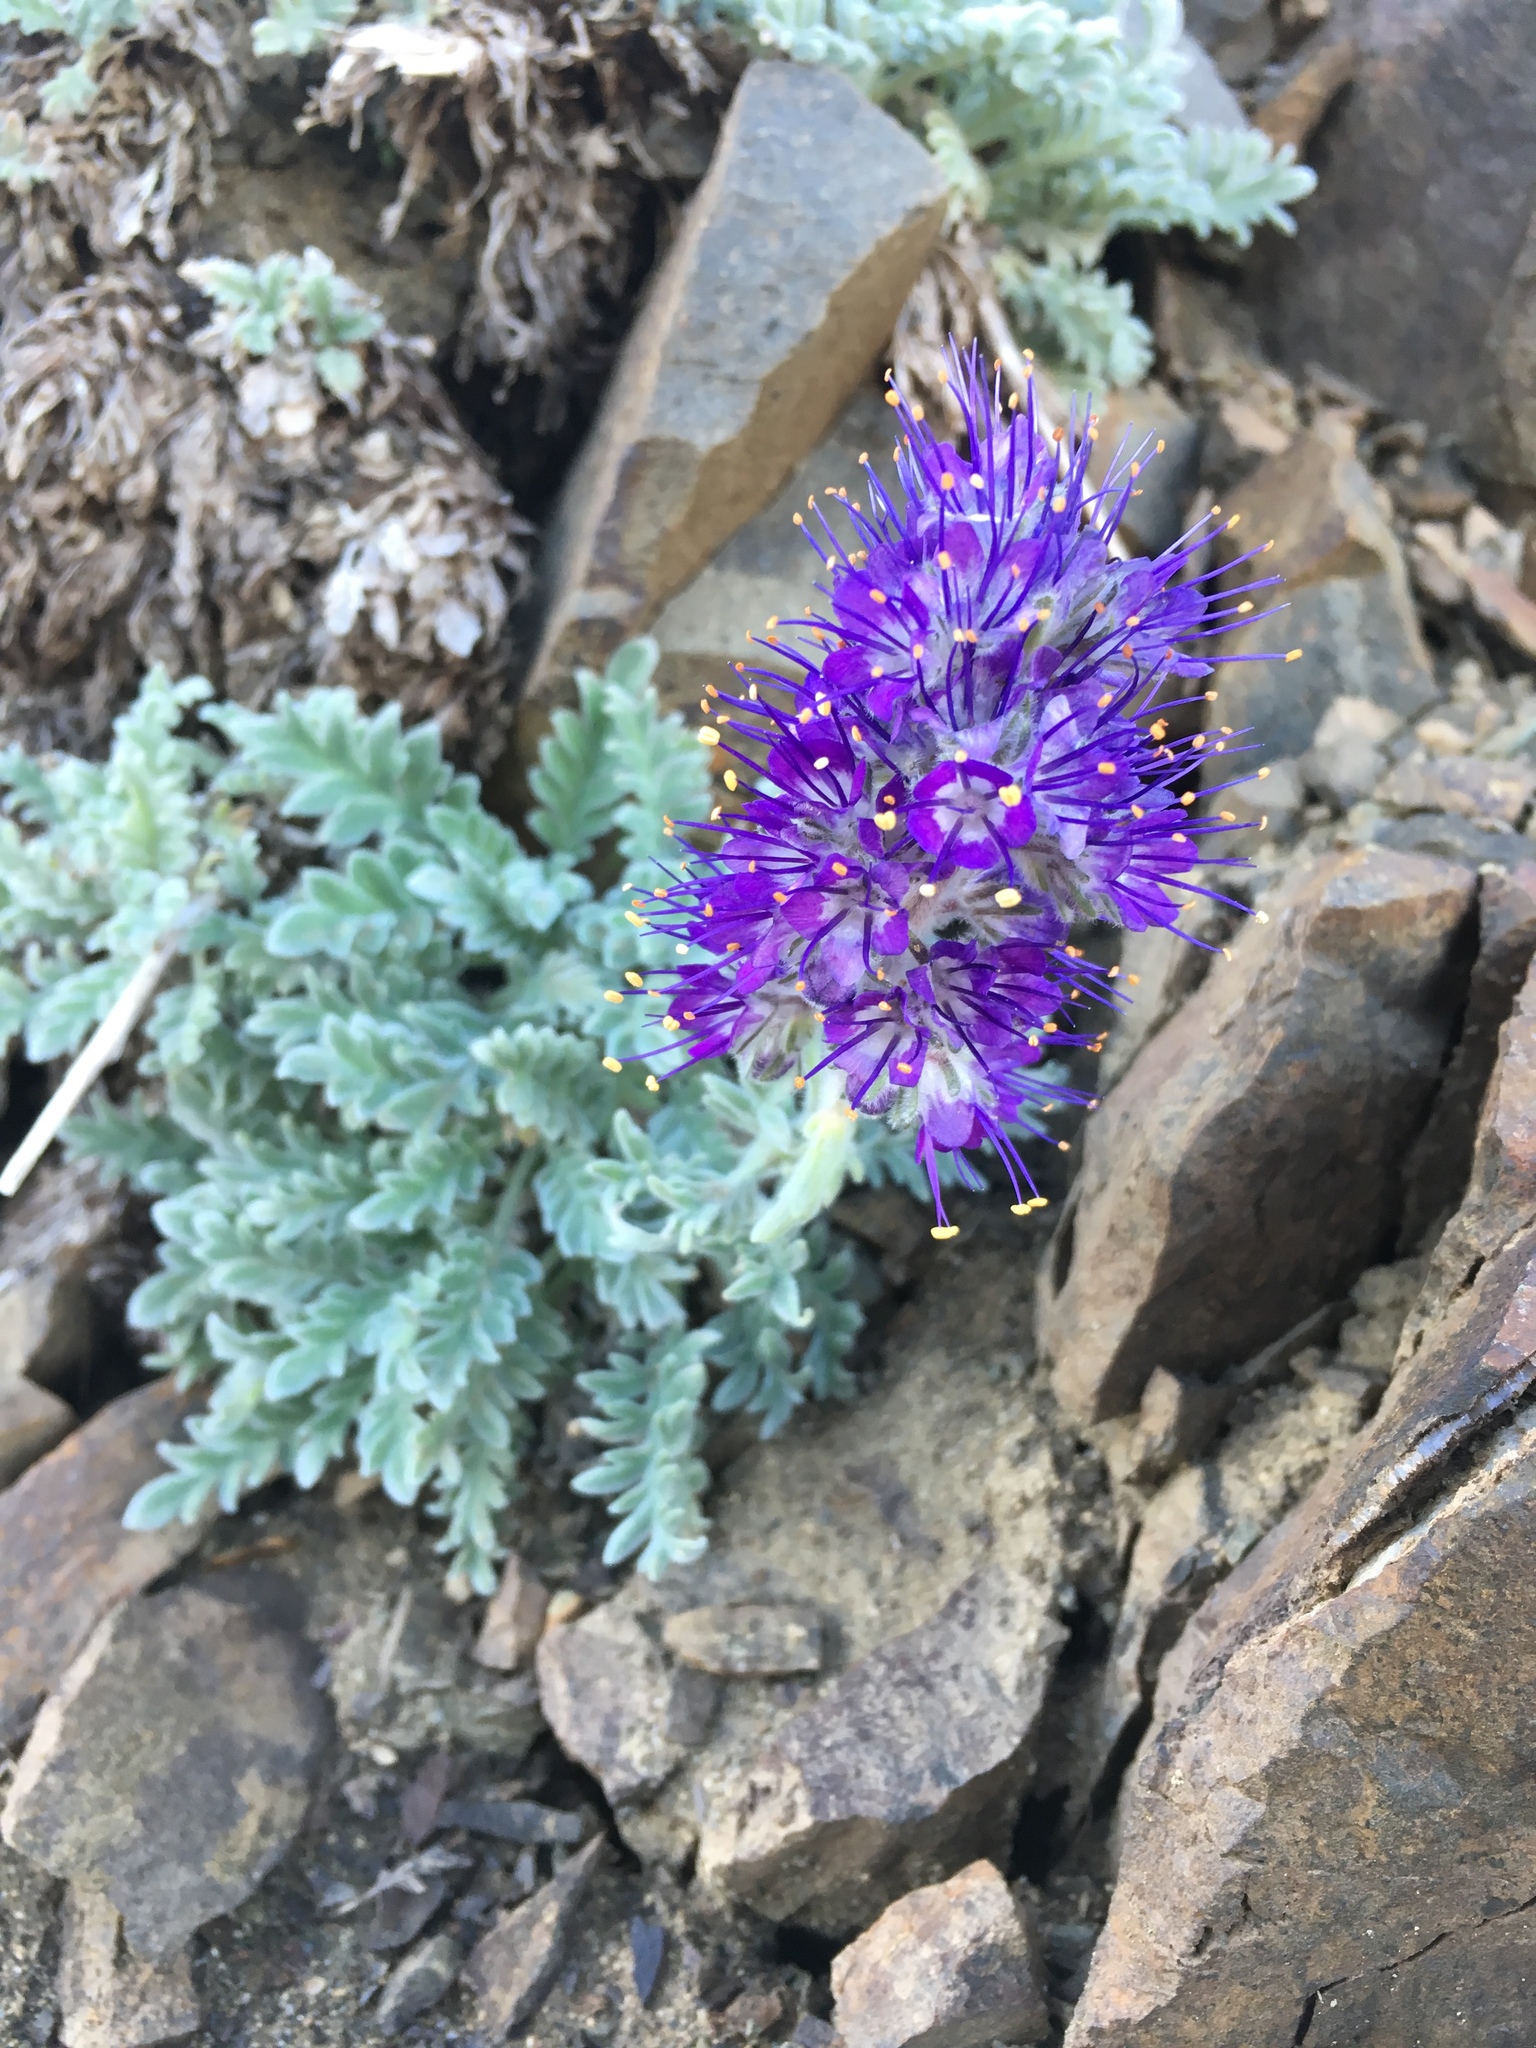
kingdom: Plantae
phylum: Tracheophyta
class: Magnoliopsida
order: Boraginales
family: Hydrophyllaceae
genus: Phacelia
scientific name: Phacelia sericea
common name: Silky phacelia
